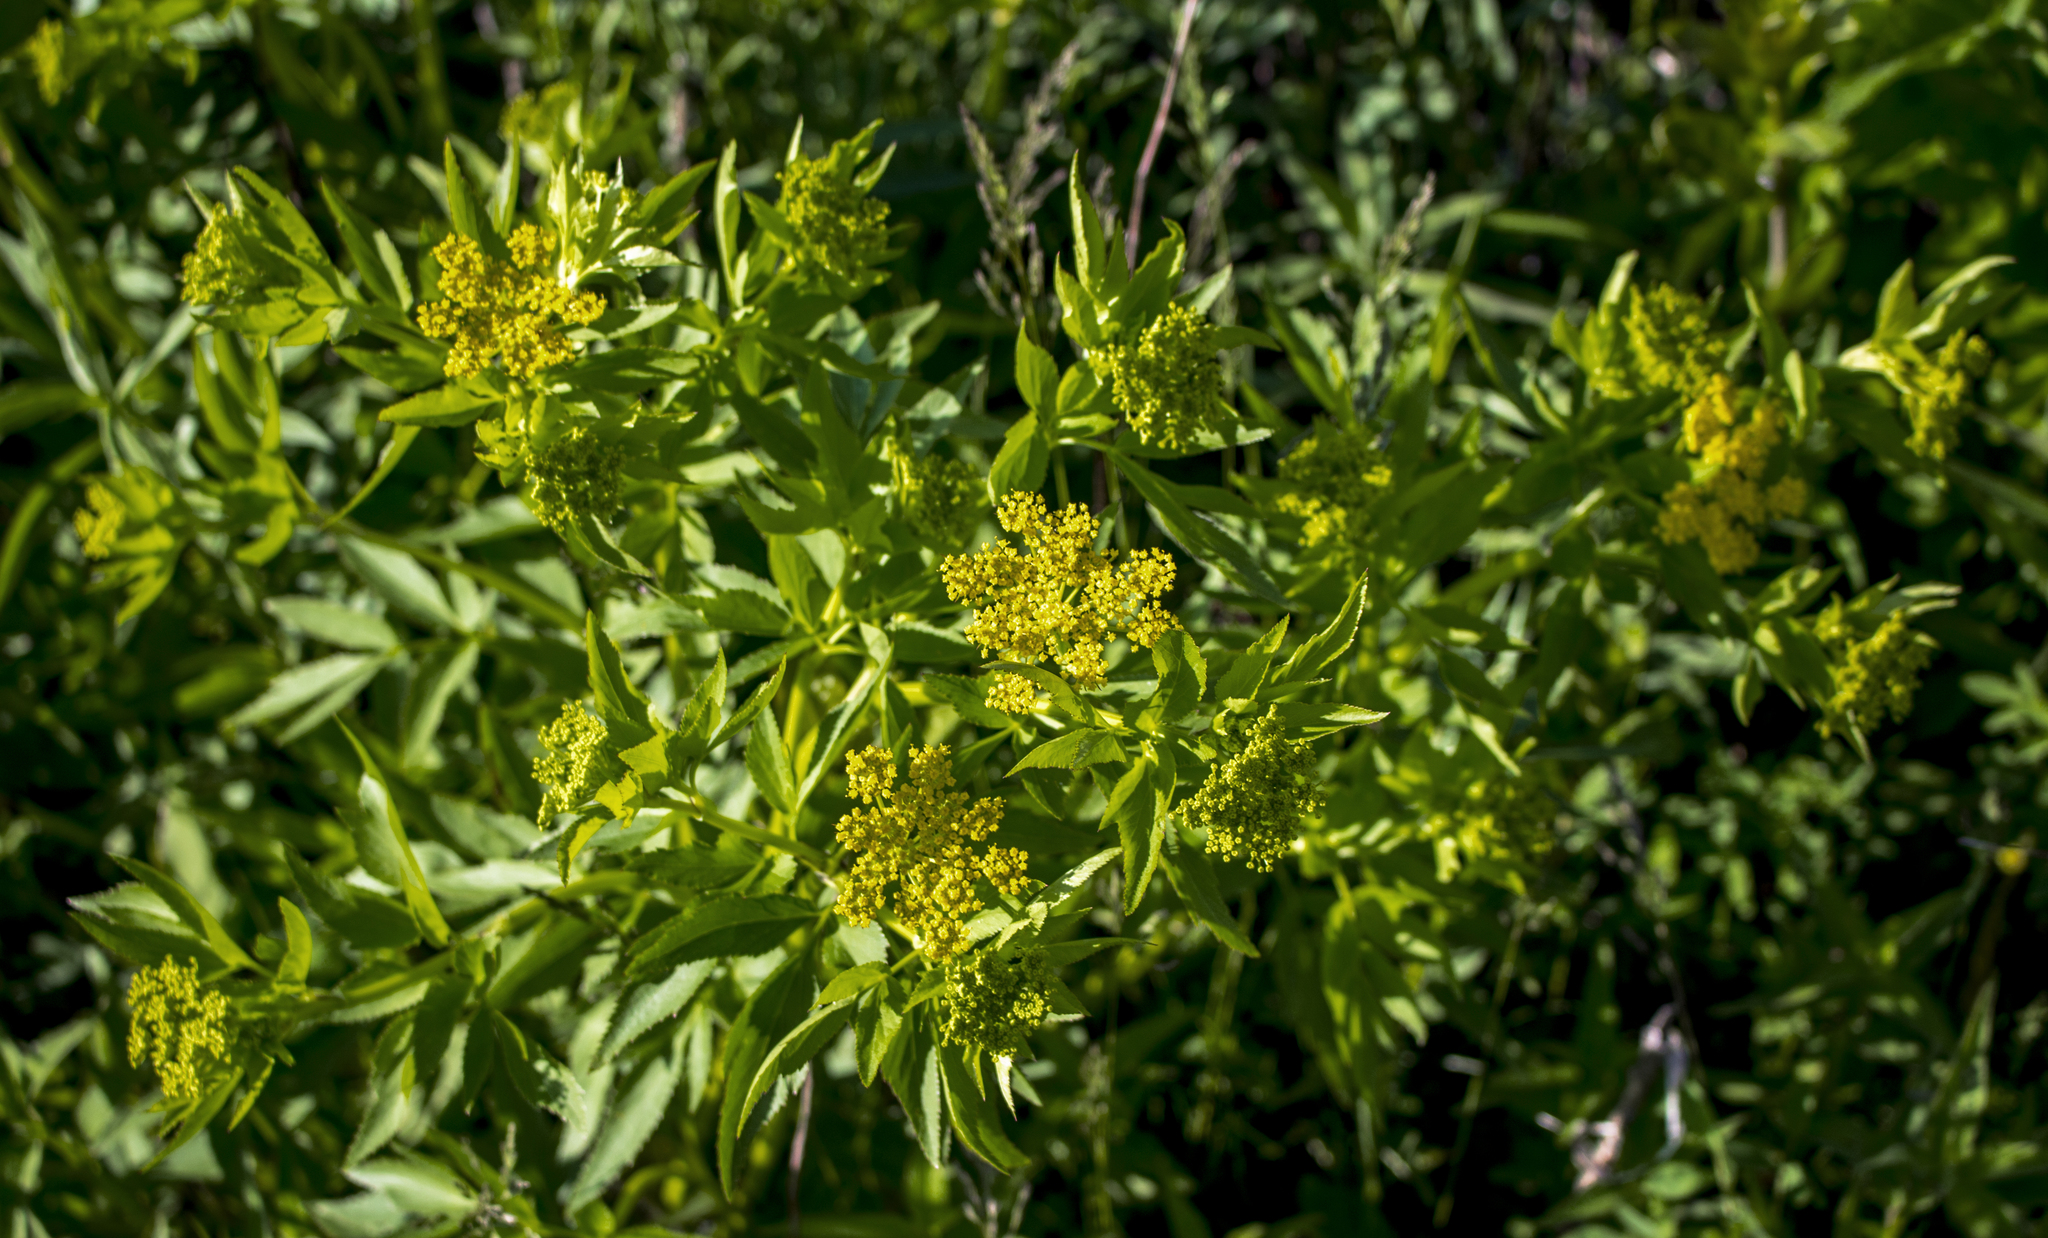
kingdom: Plantae
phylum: Tracheophyta
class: Magnoliopsida
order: Apiales
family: Apiaceae
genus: Zizia
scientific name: Zizia aurea
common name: Golden alexanders
